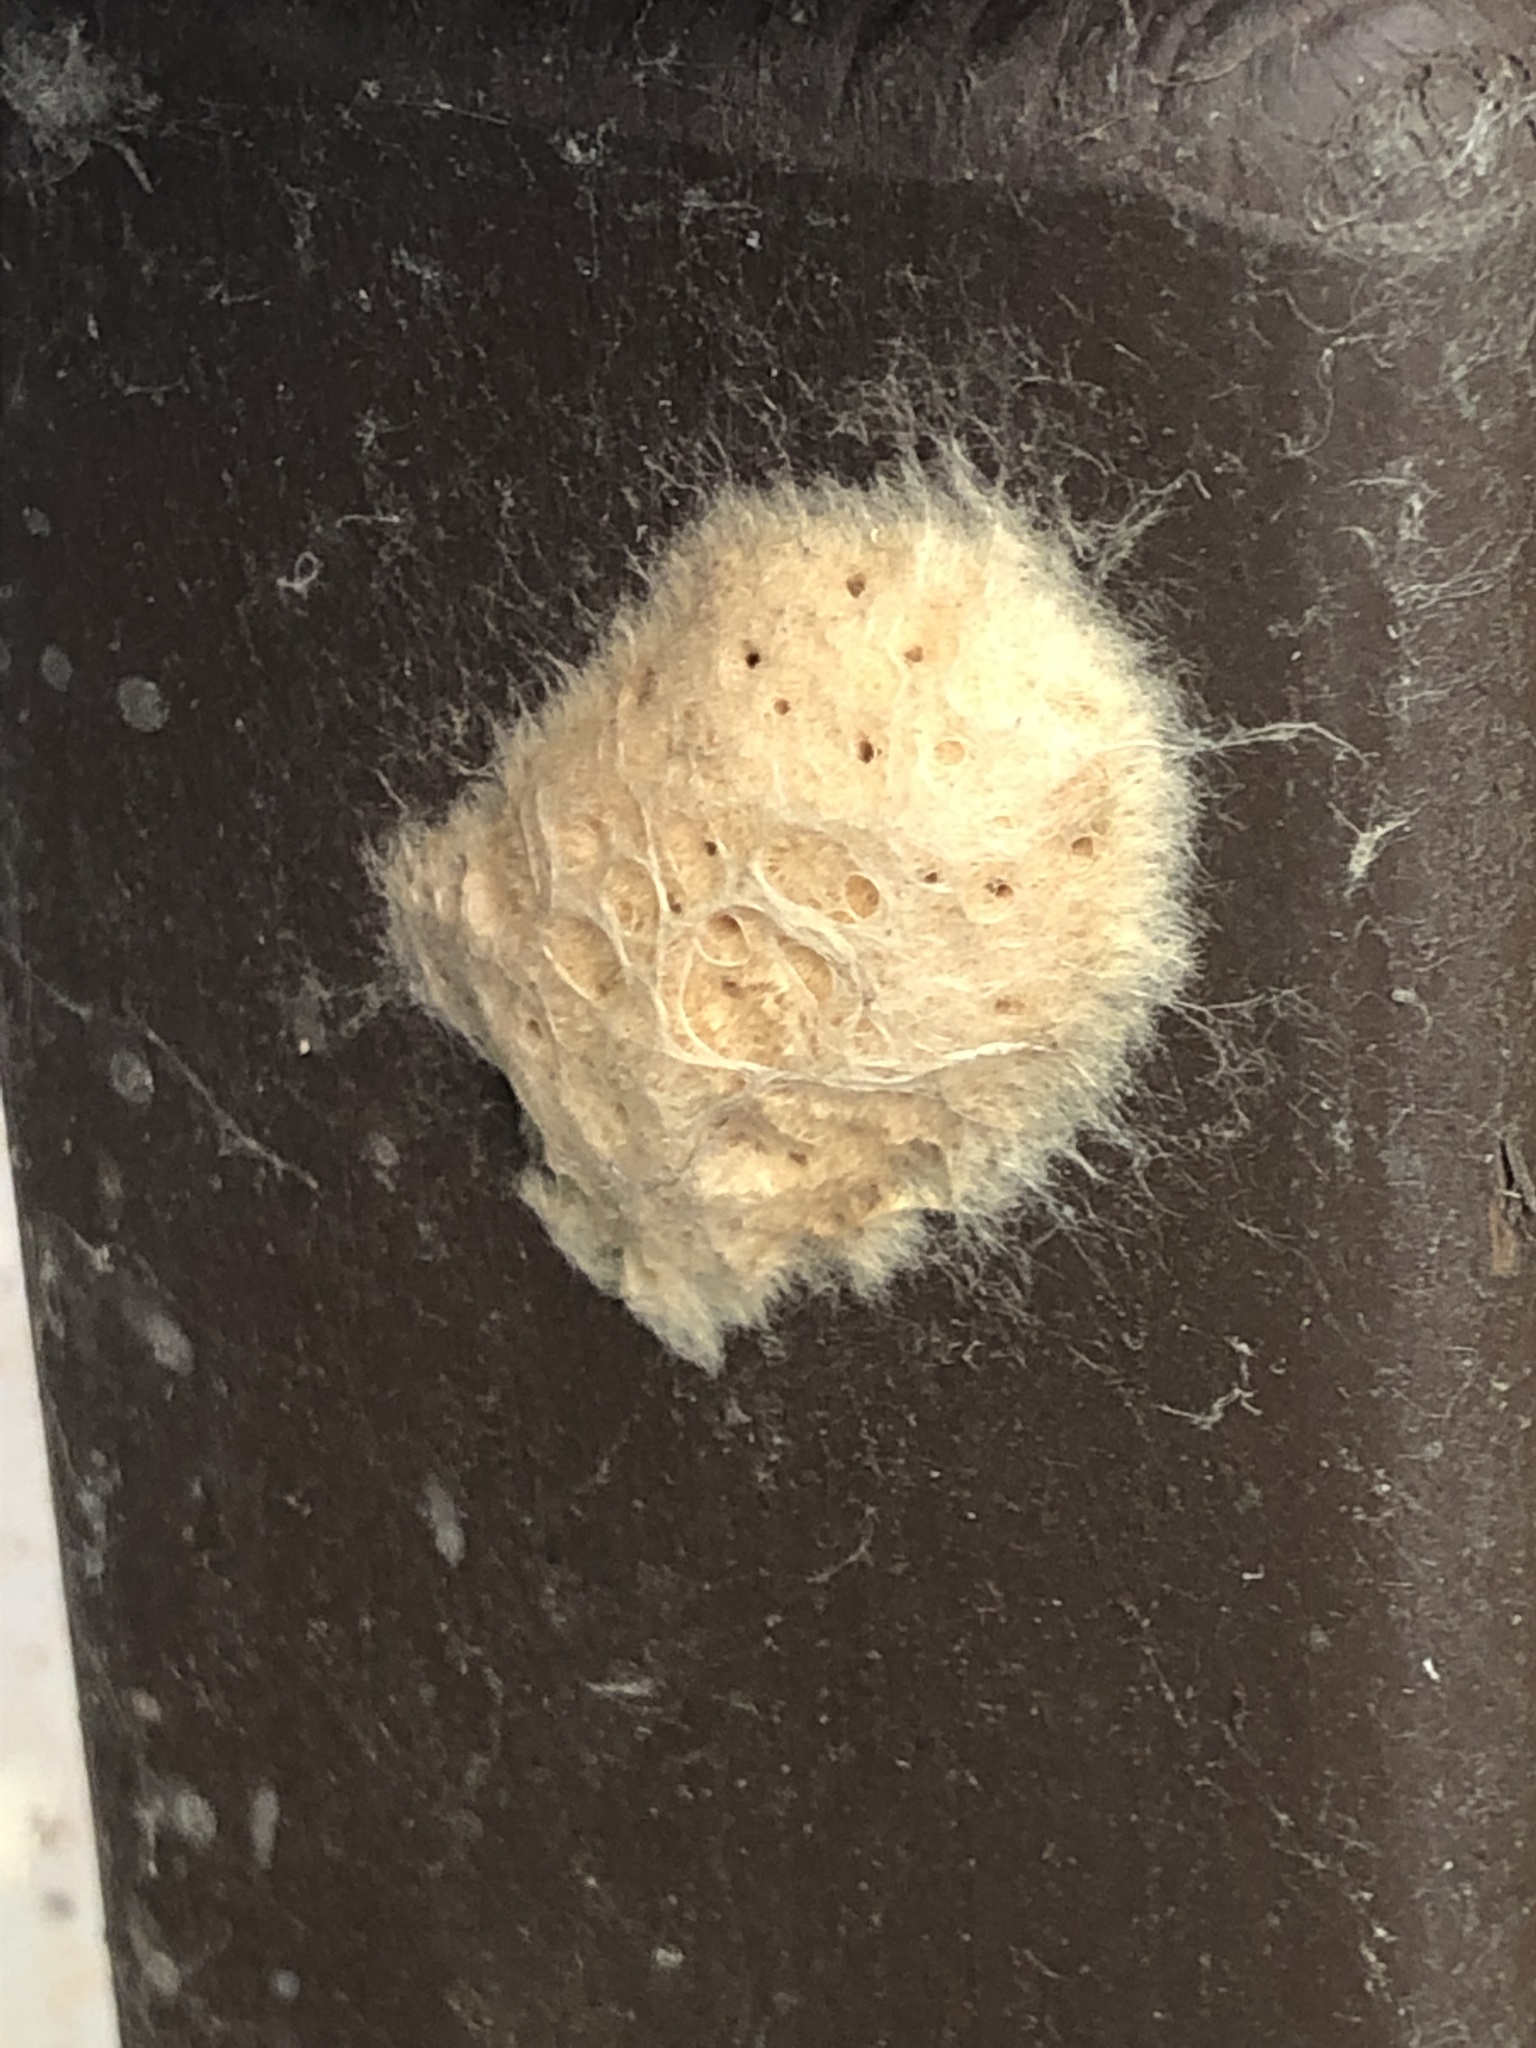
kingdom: Animalia
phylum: Arthropoda
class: Insecta
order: Lepidoptera
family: Erebidae
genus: Lymantria
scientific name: Lymantria dispar
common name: Gypsy moth
